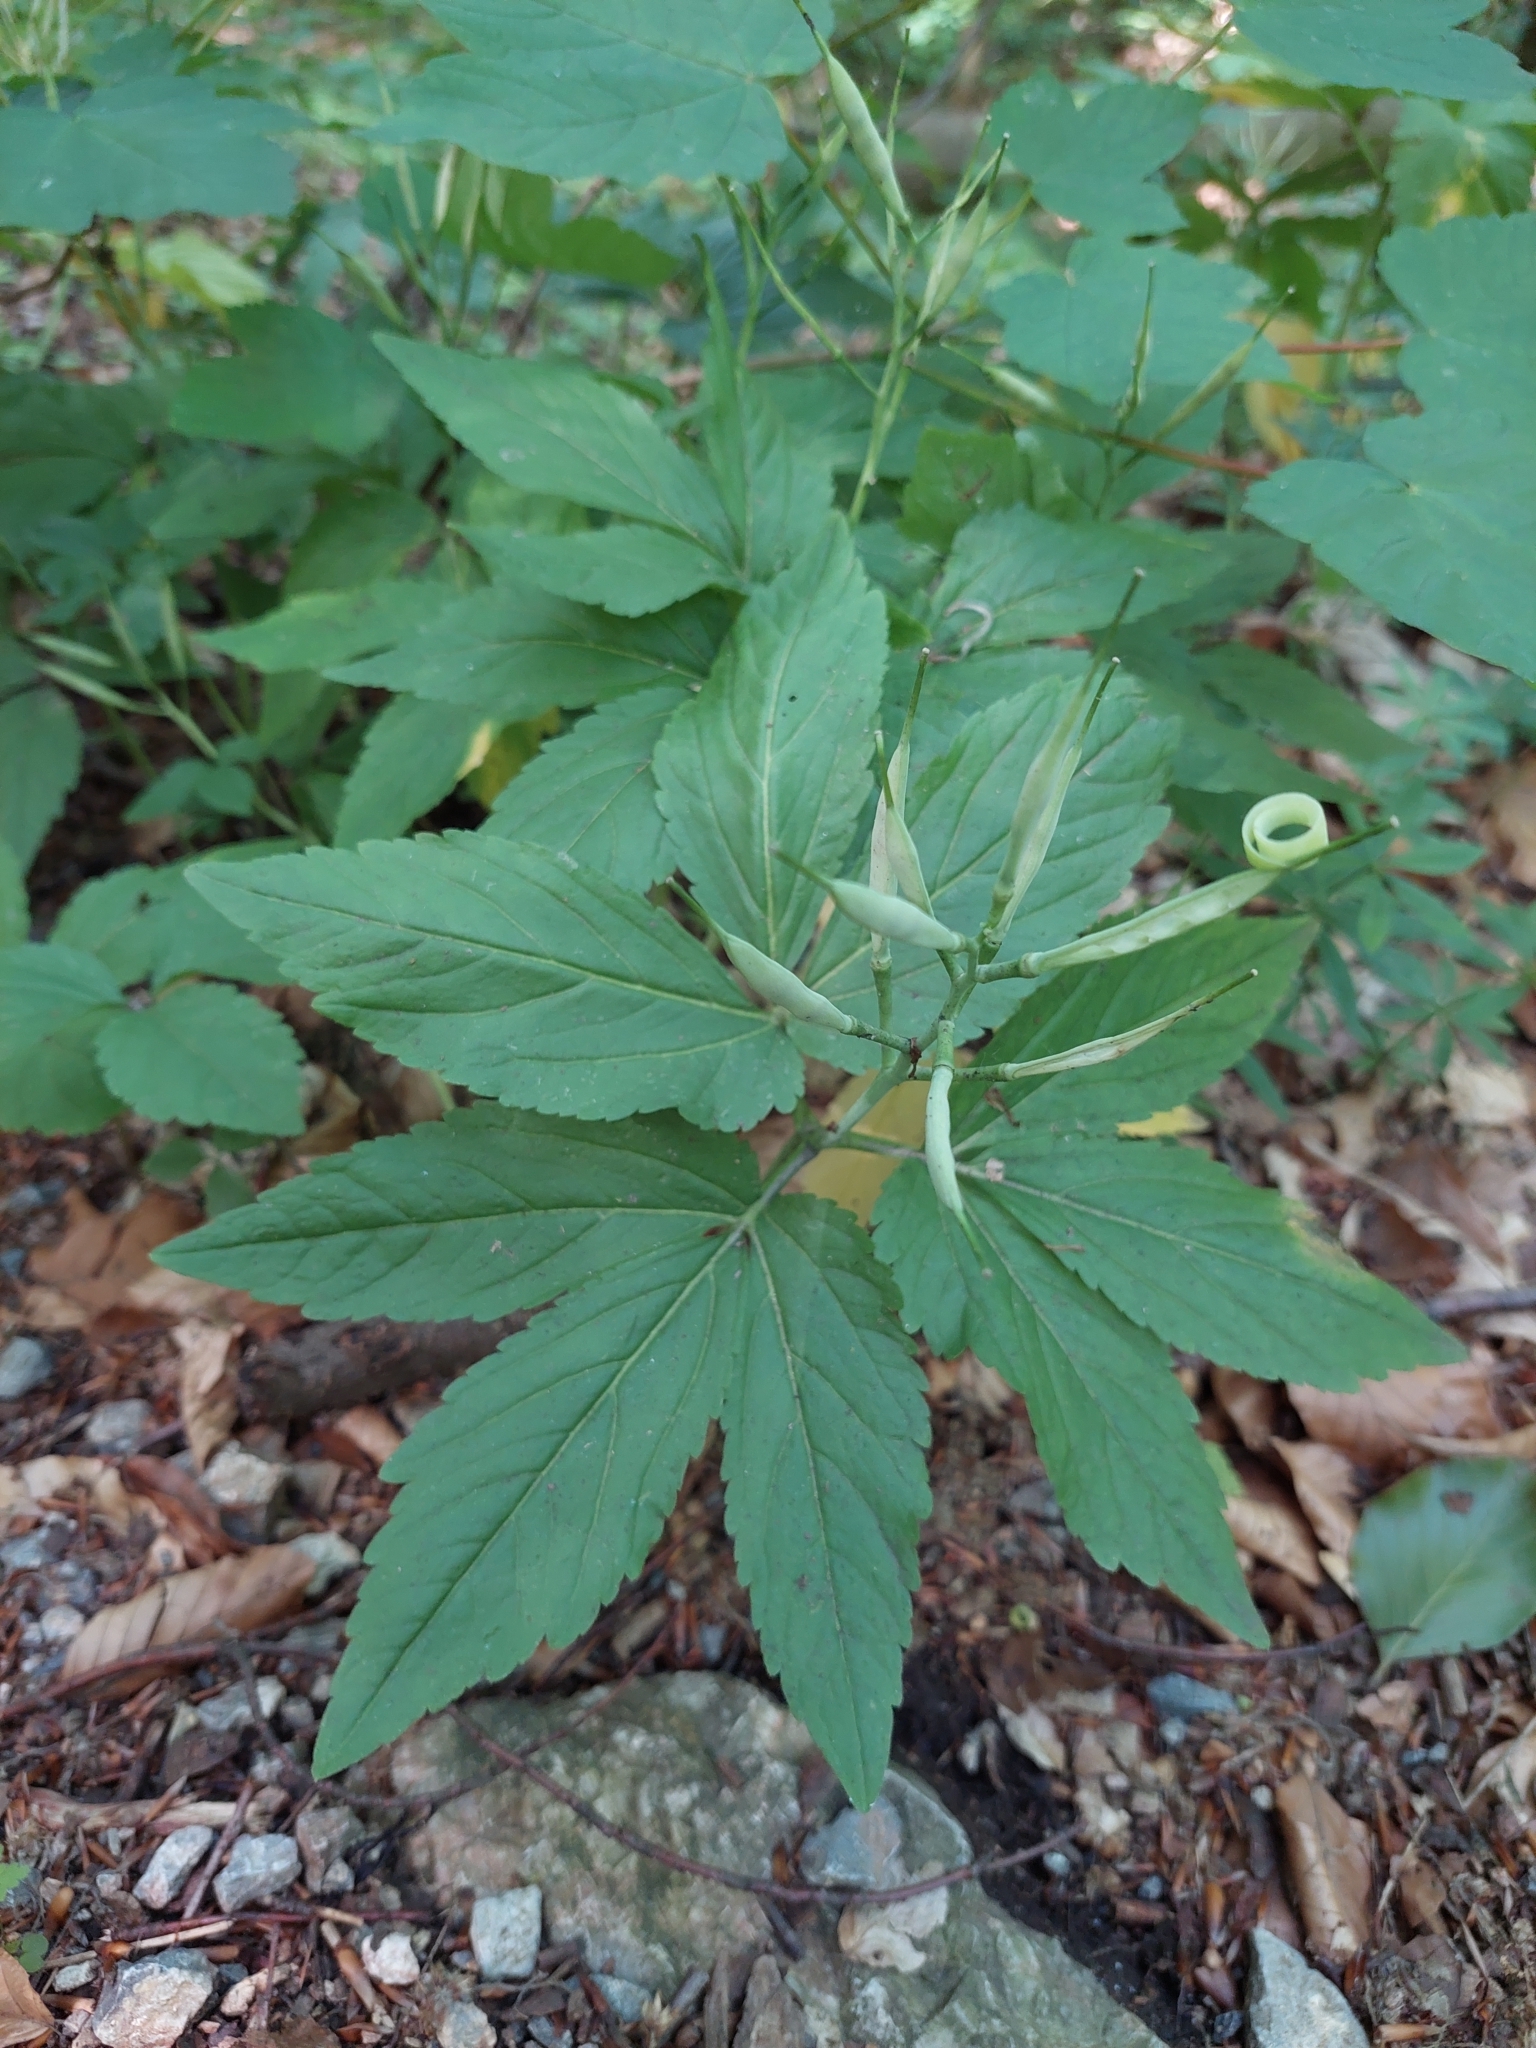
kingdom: Plantae
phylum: Tracheophyta
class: Magnoliopsida
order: Brassicales
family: Brassicaceae
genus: Cardamine
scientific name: Cardamine enneaphyllos
